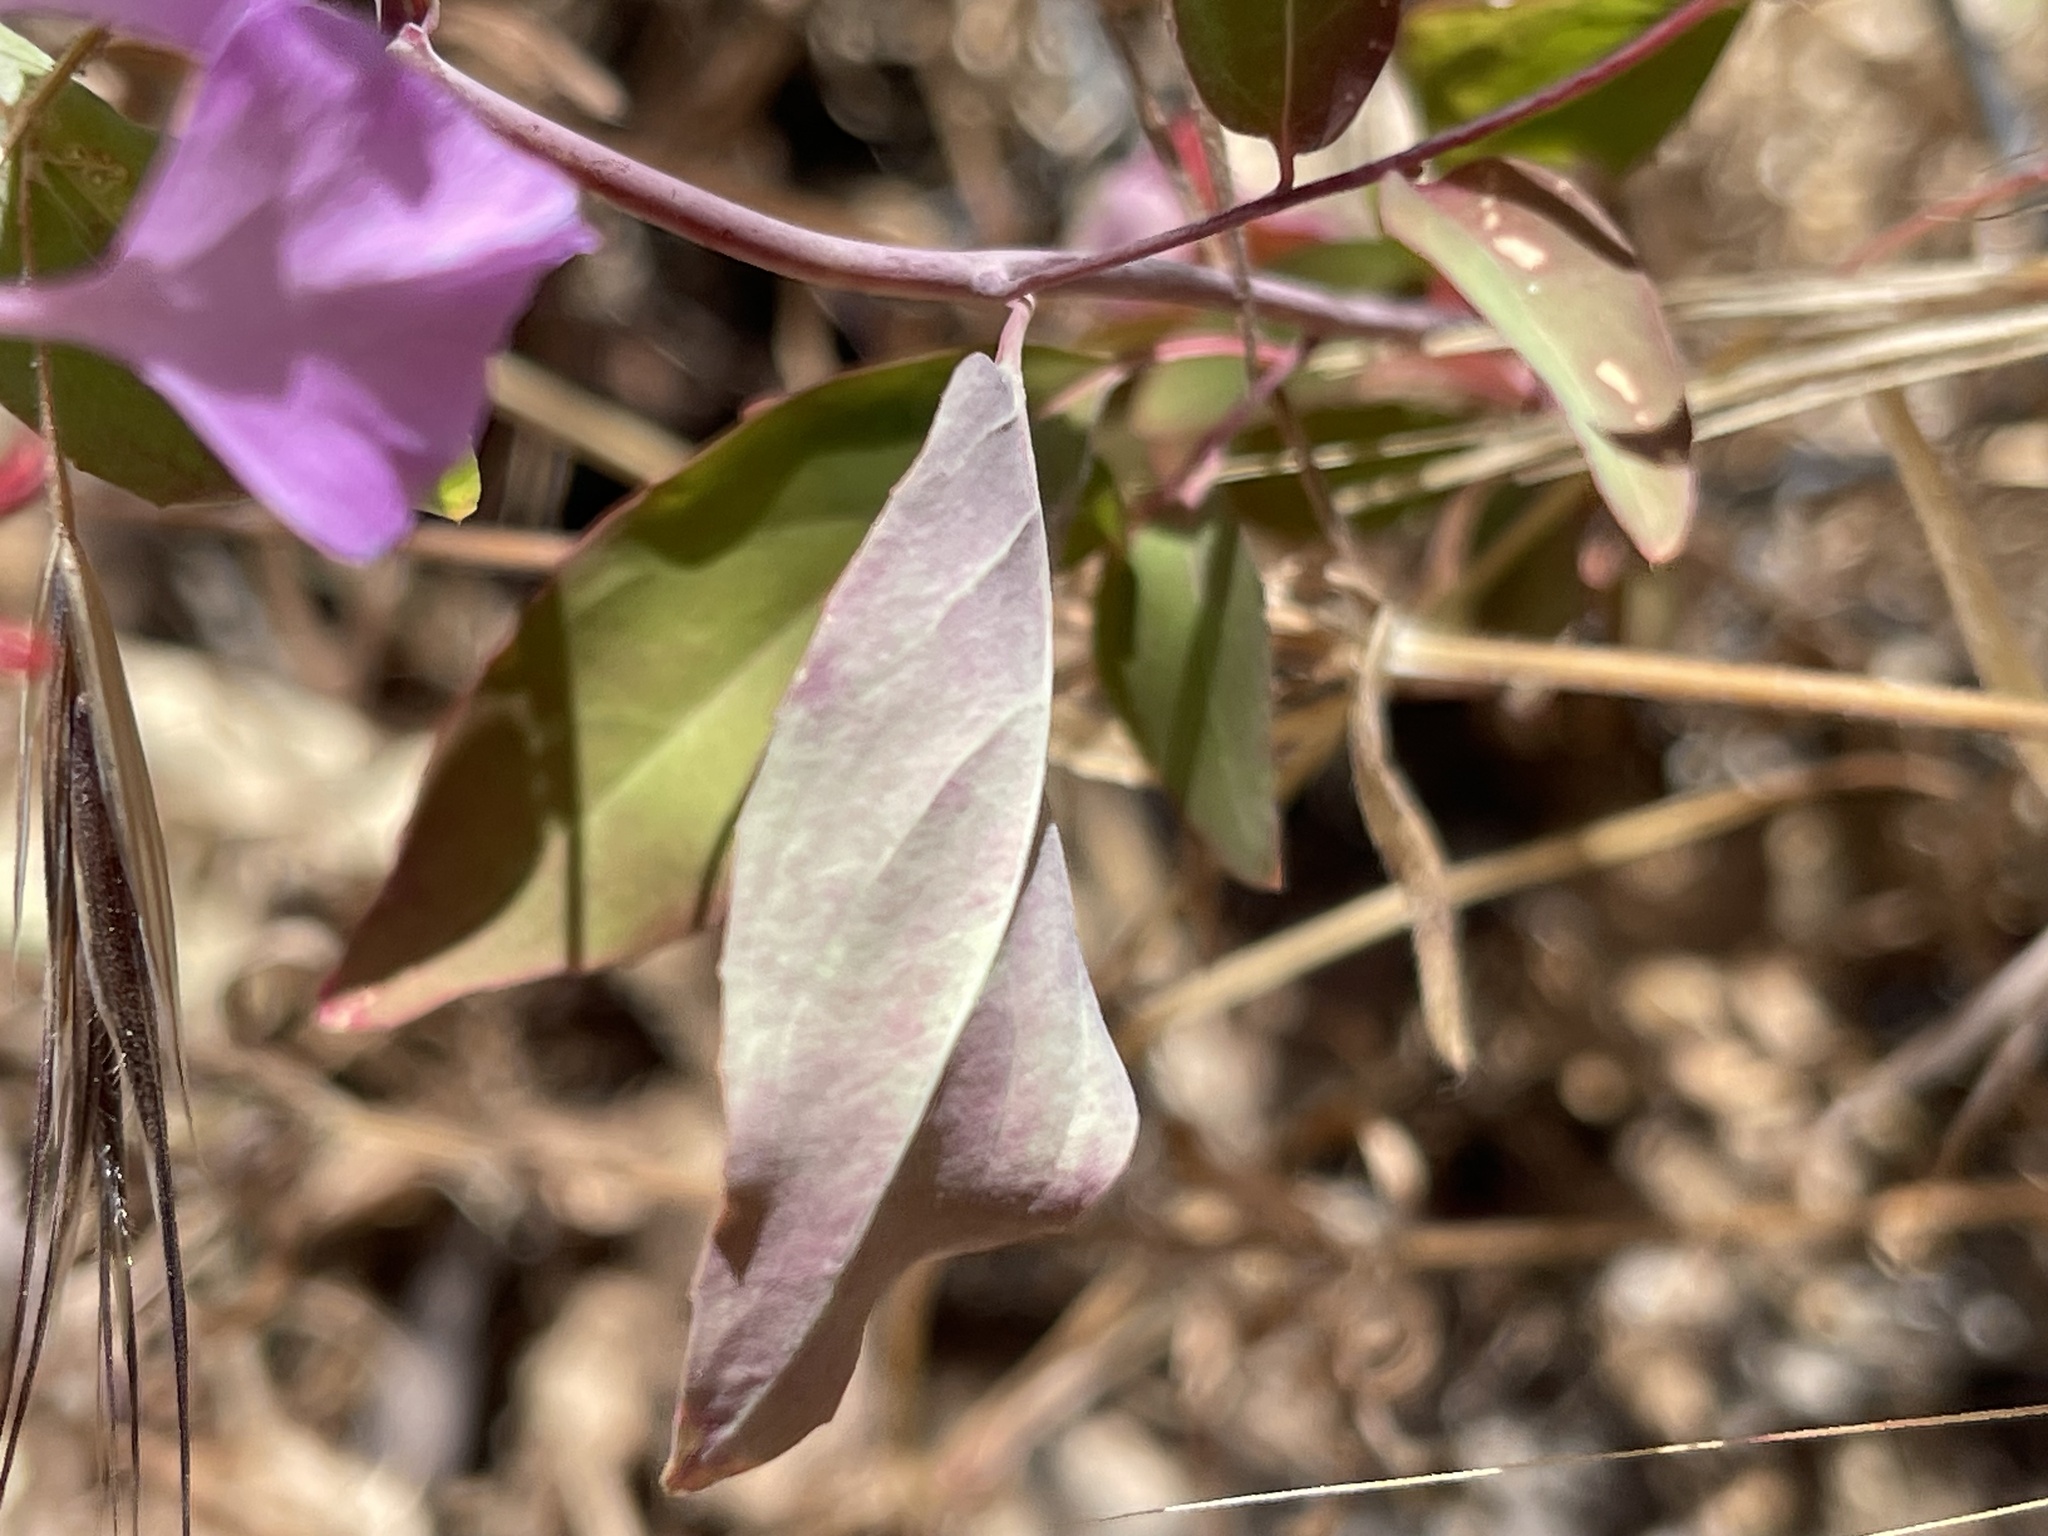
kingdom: Plantae
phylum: Tracheophyta
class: Magnoliopsida
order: Myrtales
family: Onagraceae
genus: Clarkia
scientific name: Clarkia unguiculata
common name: Clarkia
